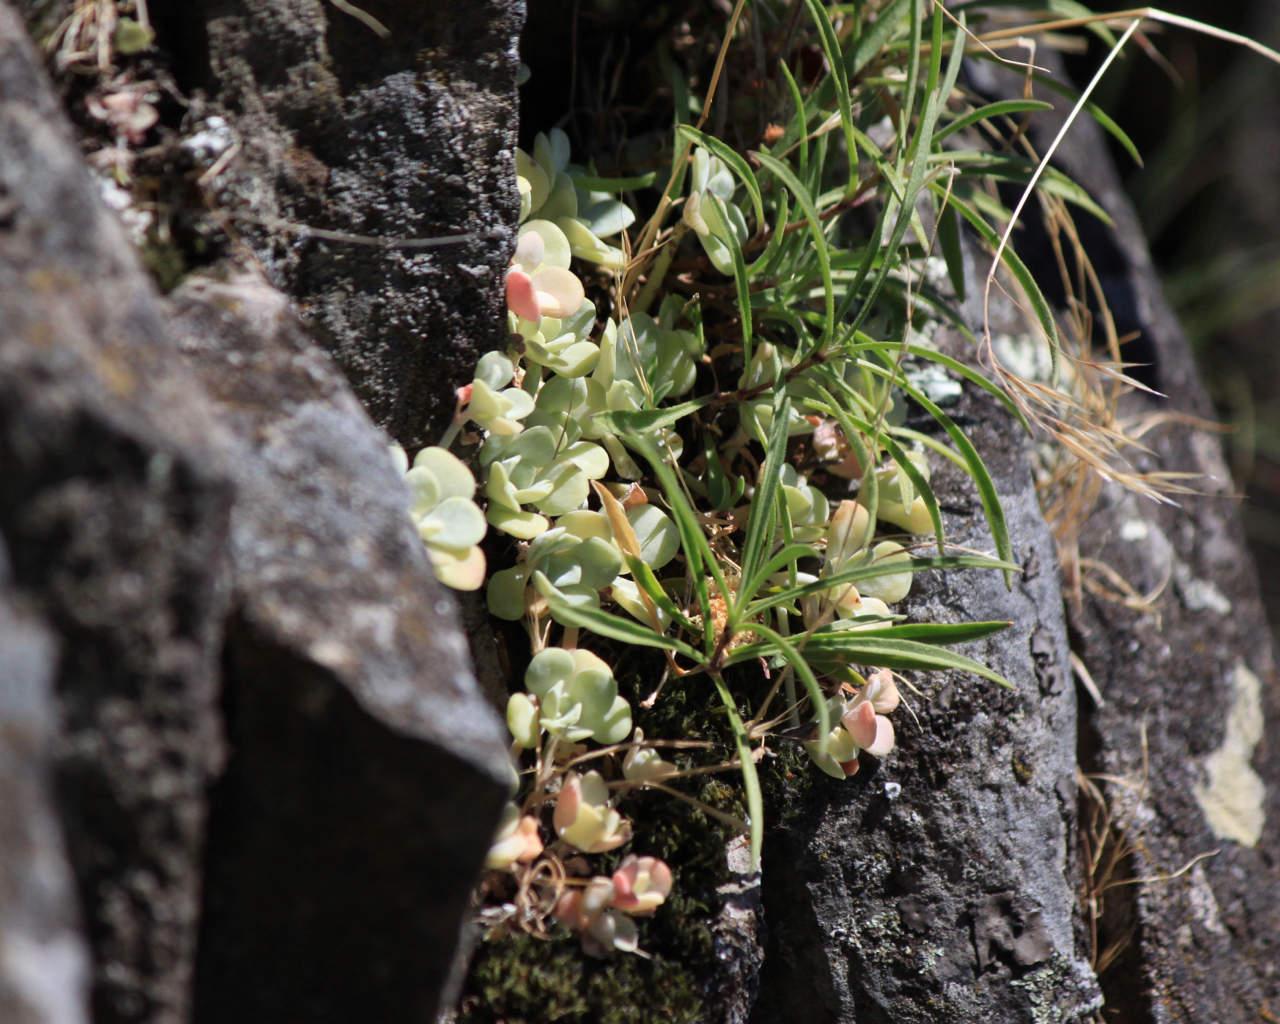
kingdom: Plantae
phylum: Tracheophyta
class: Magnoliopsida
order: Saxifragales
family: Crassulaceae
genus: Sedum
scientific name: Sedum spathulifolium
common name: Colorado stonecrop
